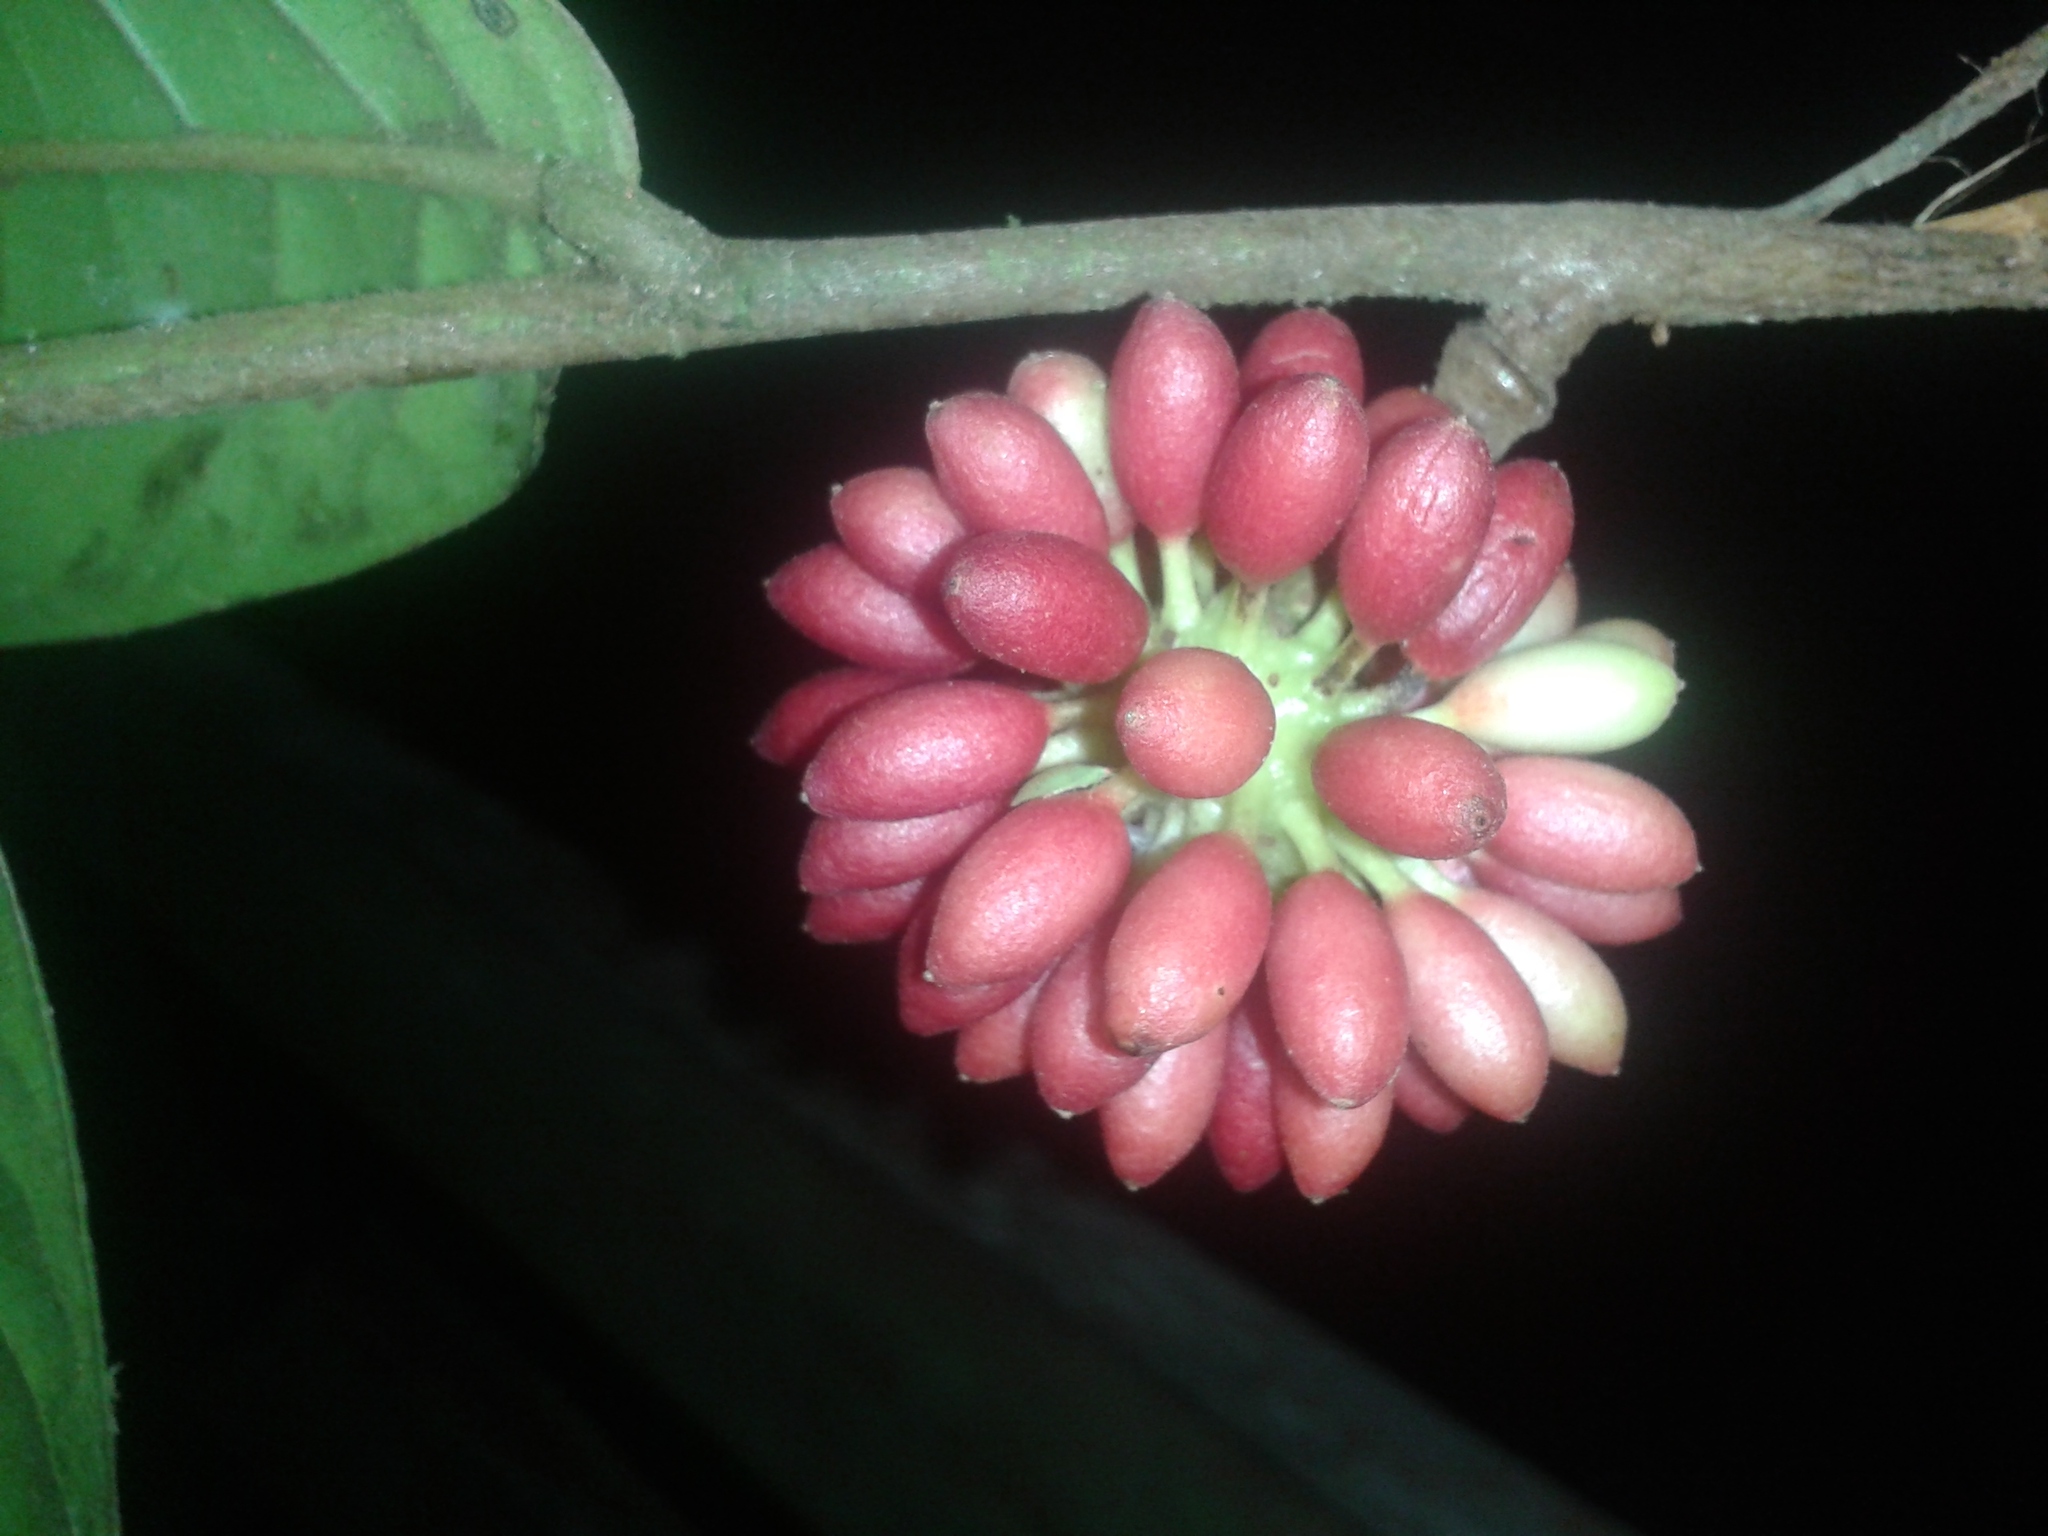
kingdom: Plantae
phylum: Tracheophyta
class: Magnoliopsida
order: Magnoliales
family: Annonaceae
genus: Guatteria
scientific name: Guatteria pudica
